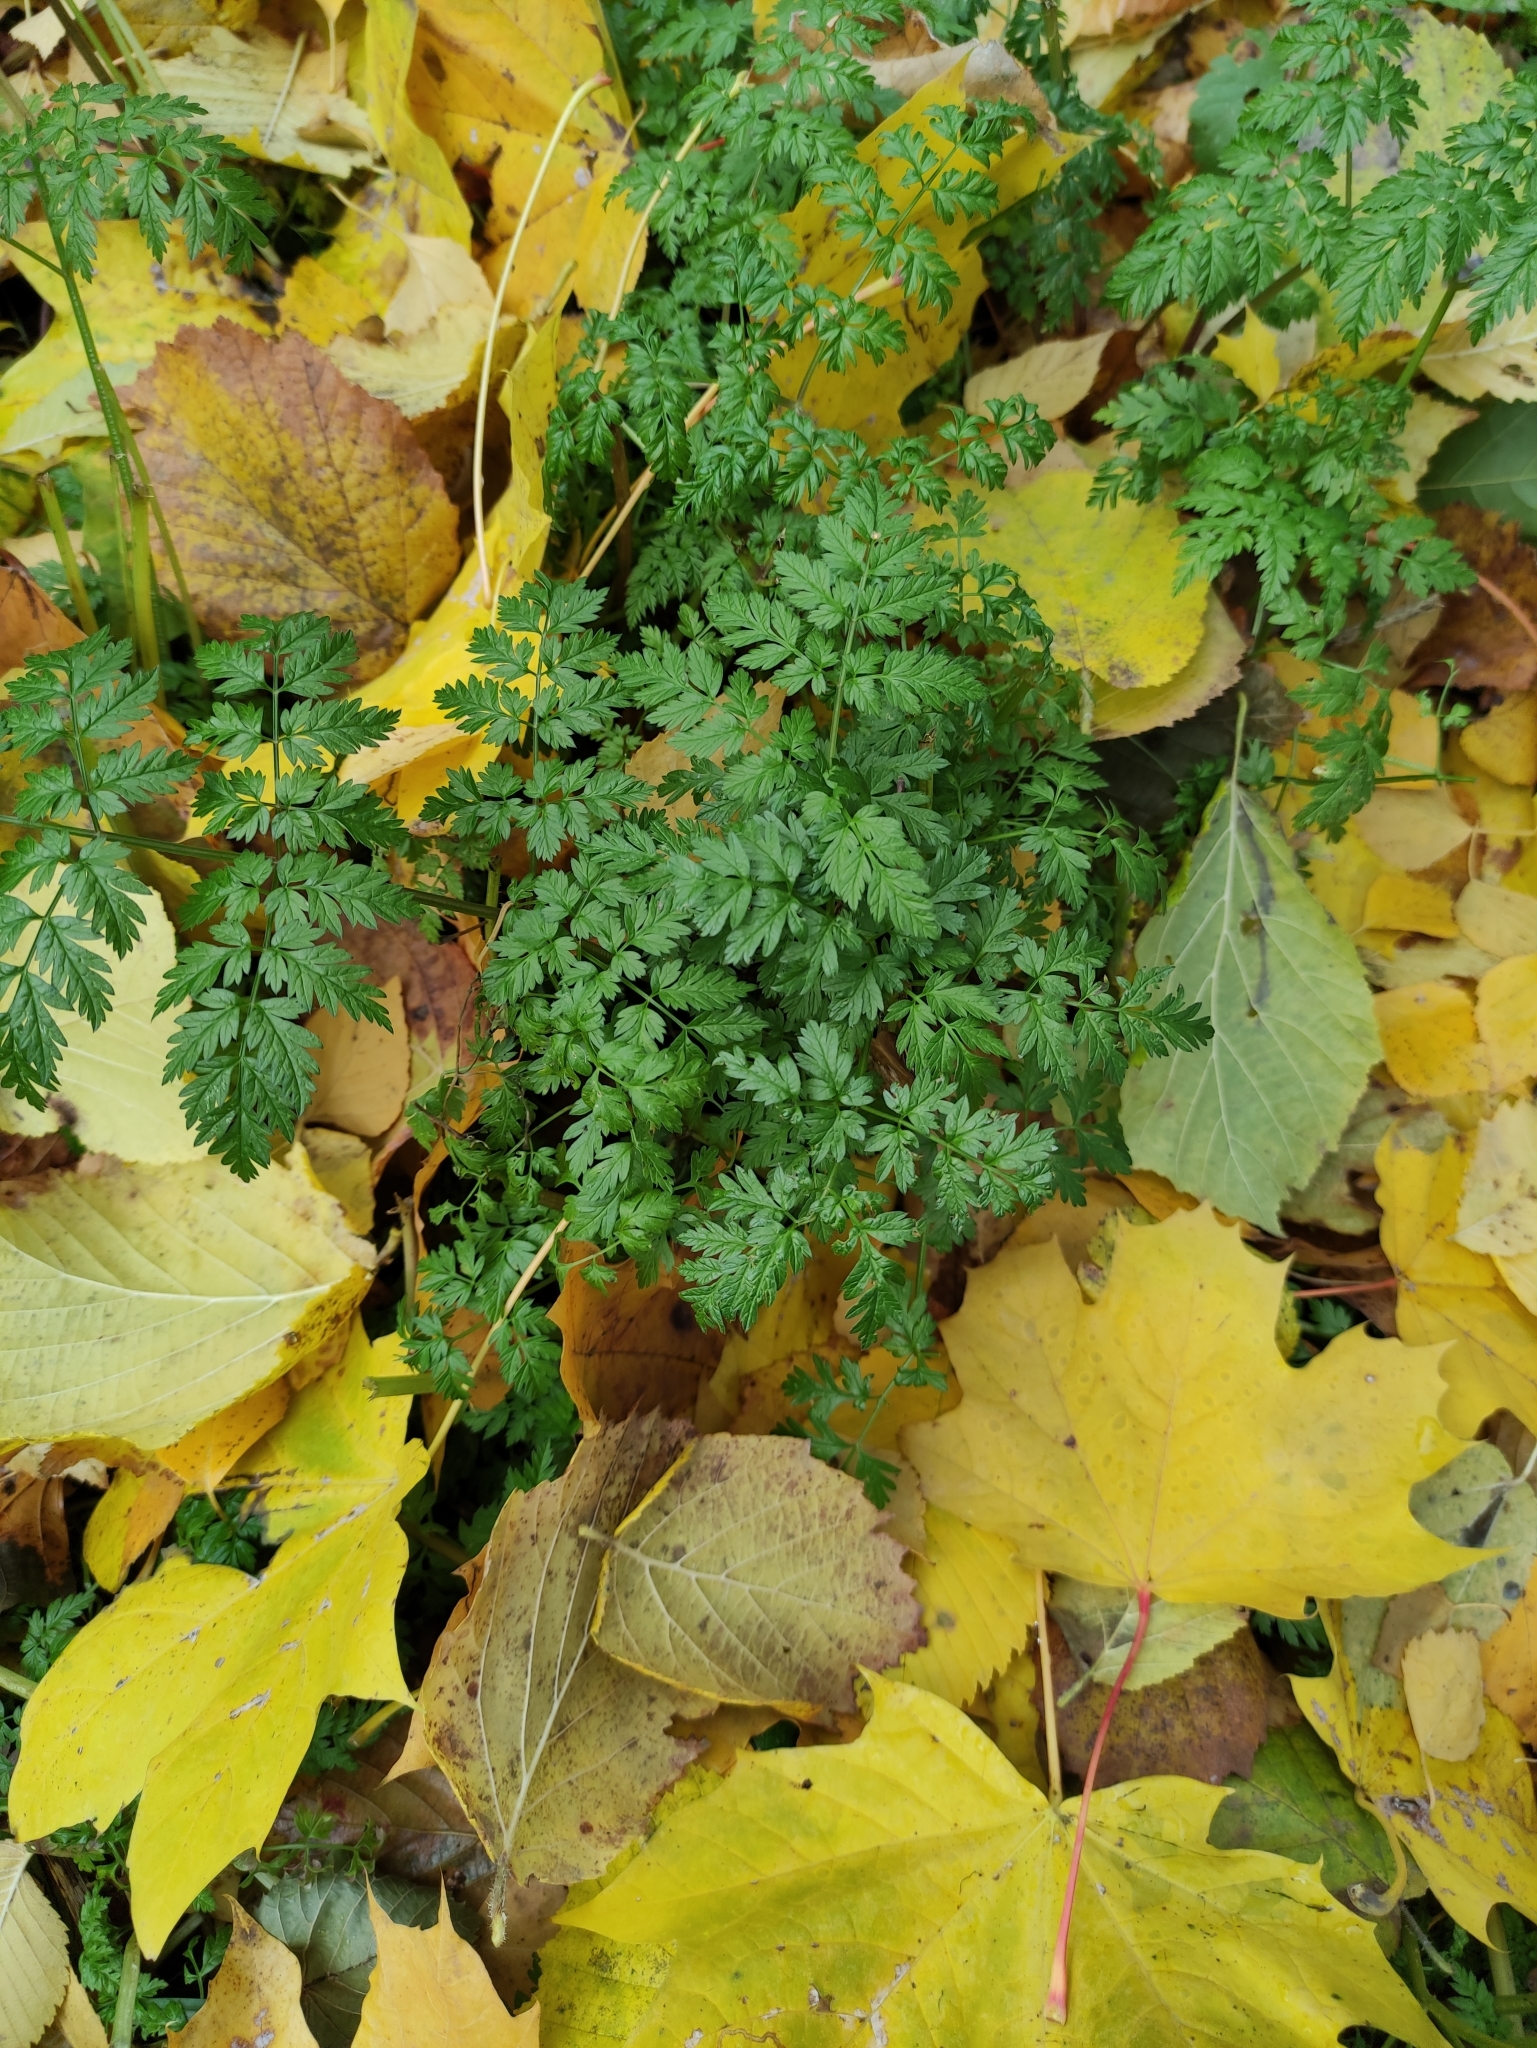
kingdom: Plantae
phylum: Tracheophyta
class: Magnoliopsida
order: Apiales
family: Apiaceae
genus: Anthriscus
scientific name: Anthriscus sylvestris
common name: Cow parsley
